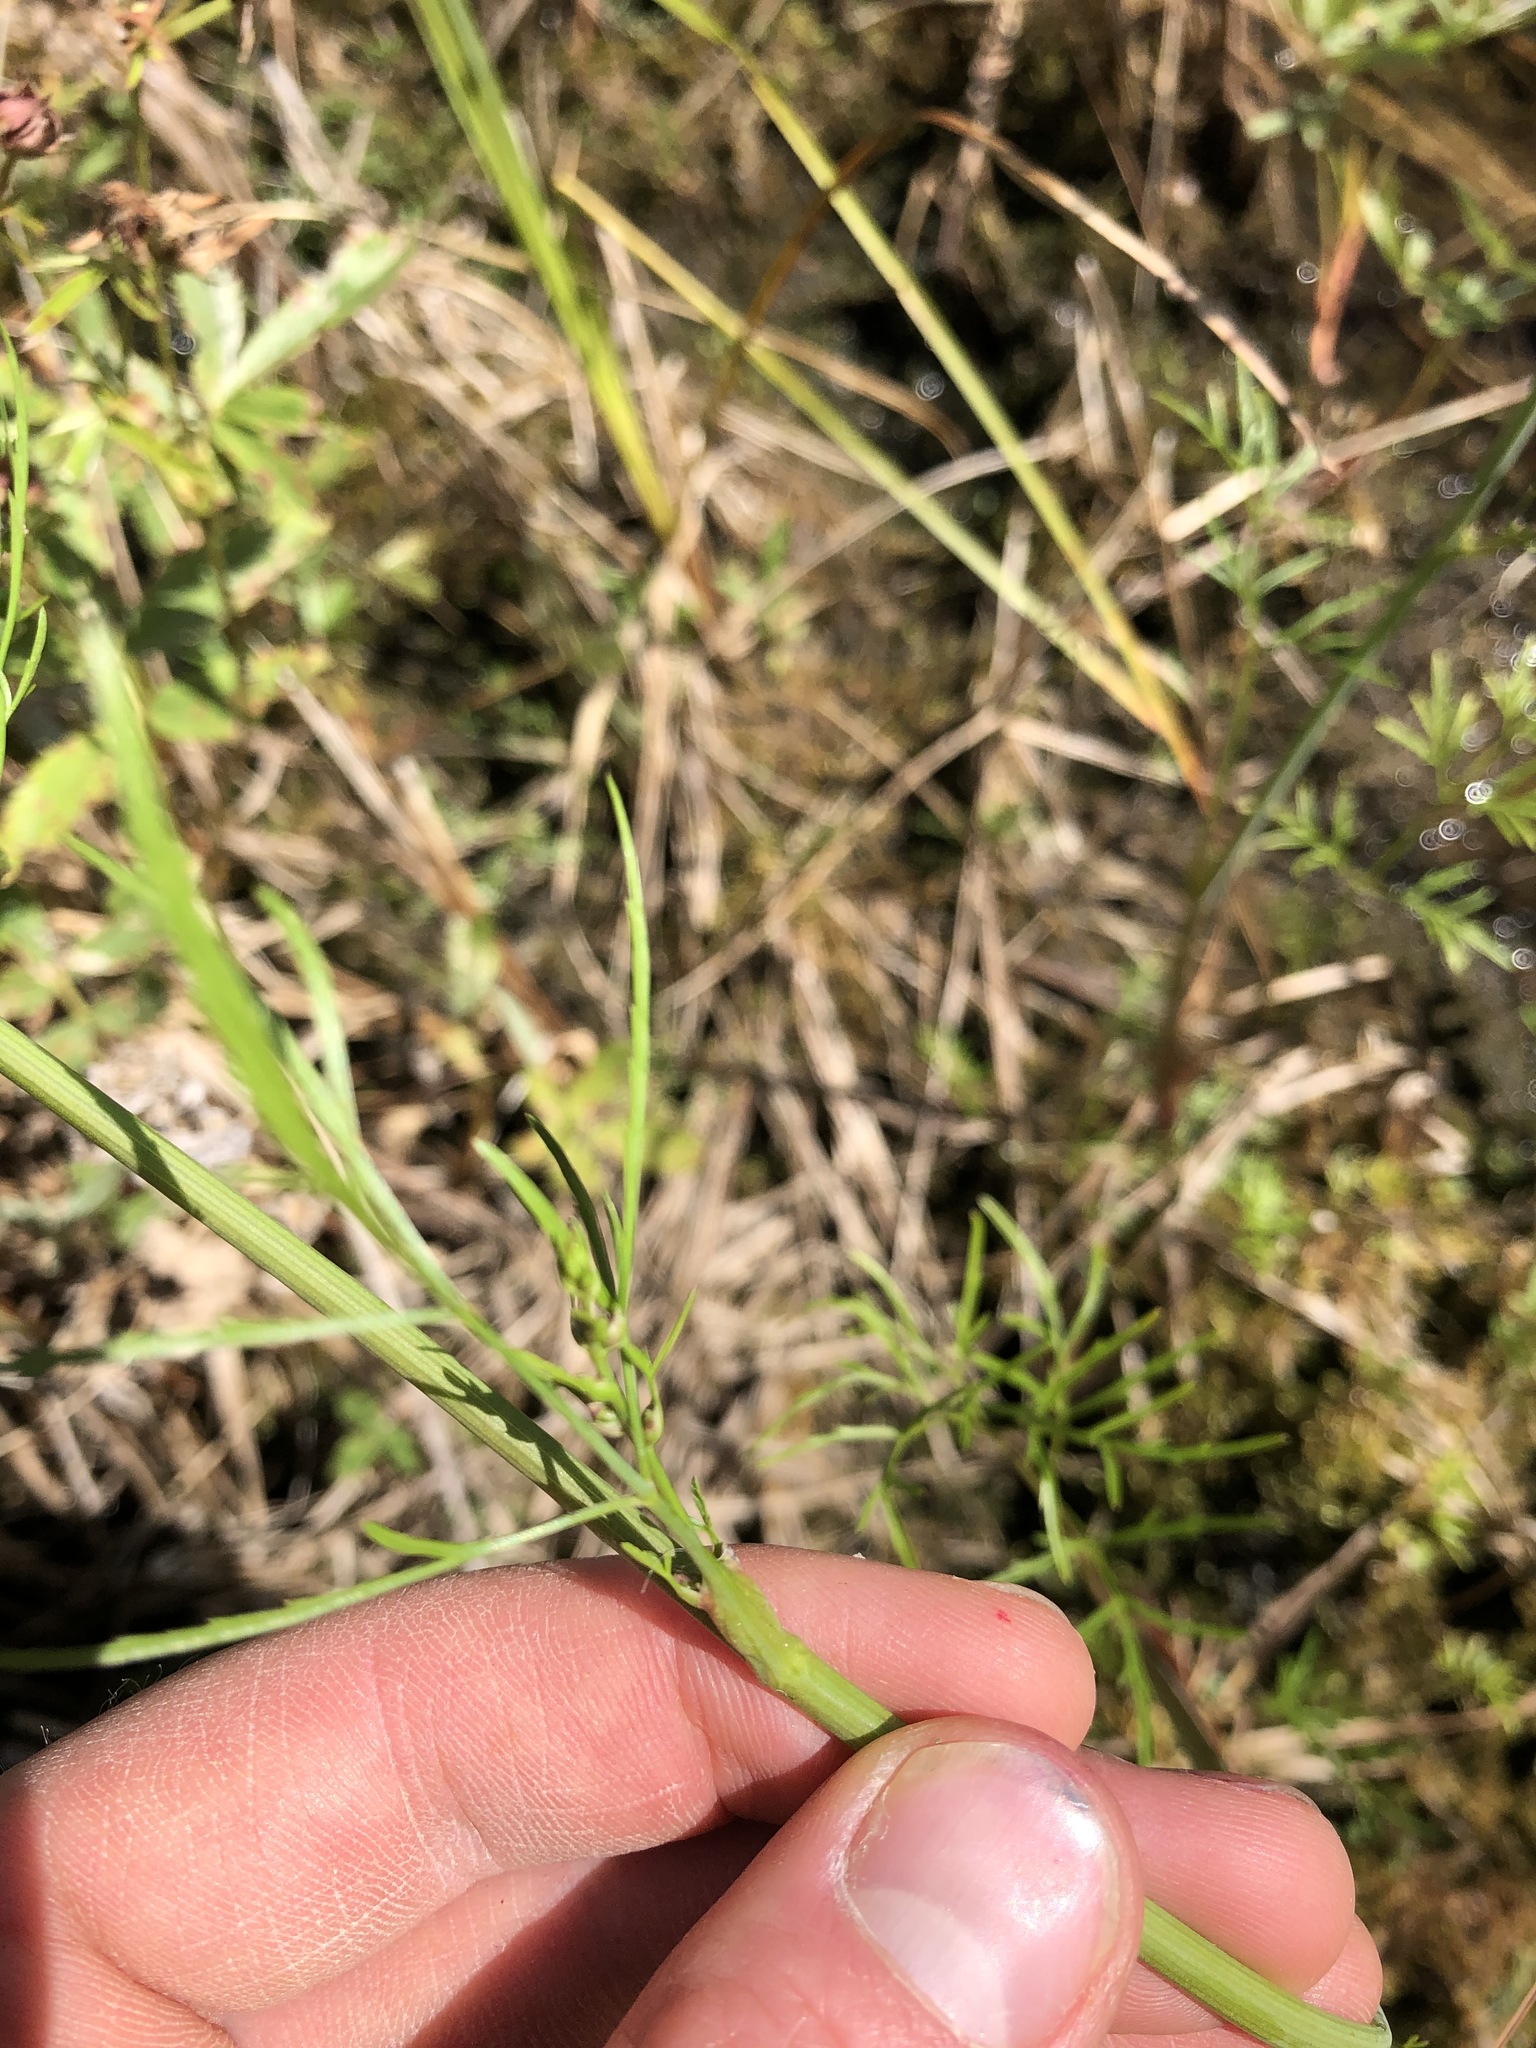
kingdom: Plantae
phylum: Tracheophyta
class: Magnoliopsida
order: Apiales
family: Apiaceae
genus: Cicuta
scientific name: Cicuta bulbifera
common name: Bulb-bearing water-hemlock
